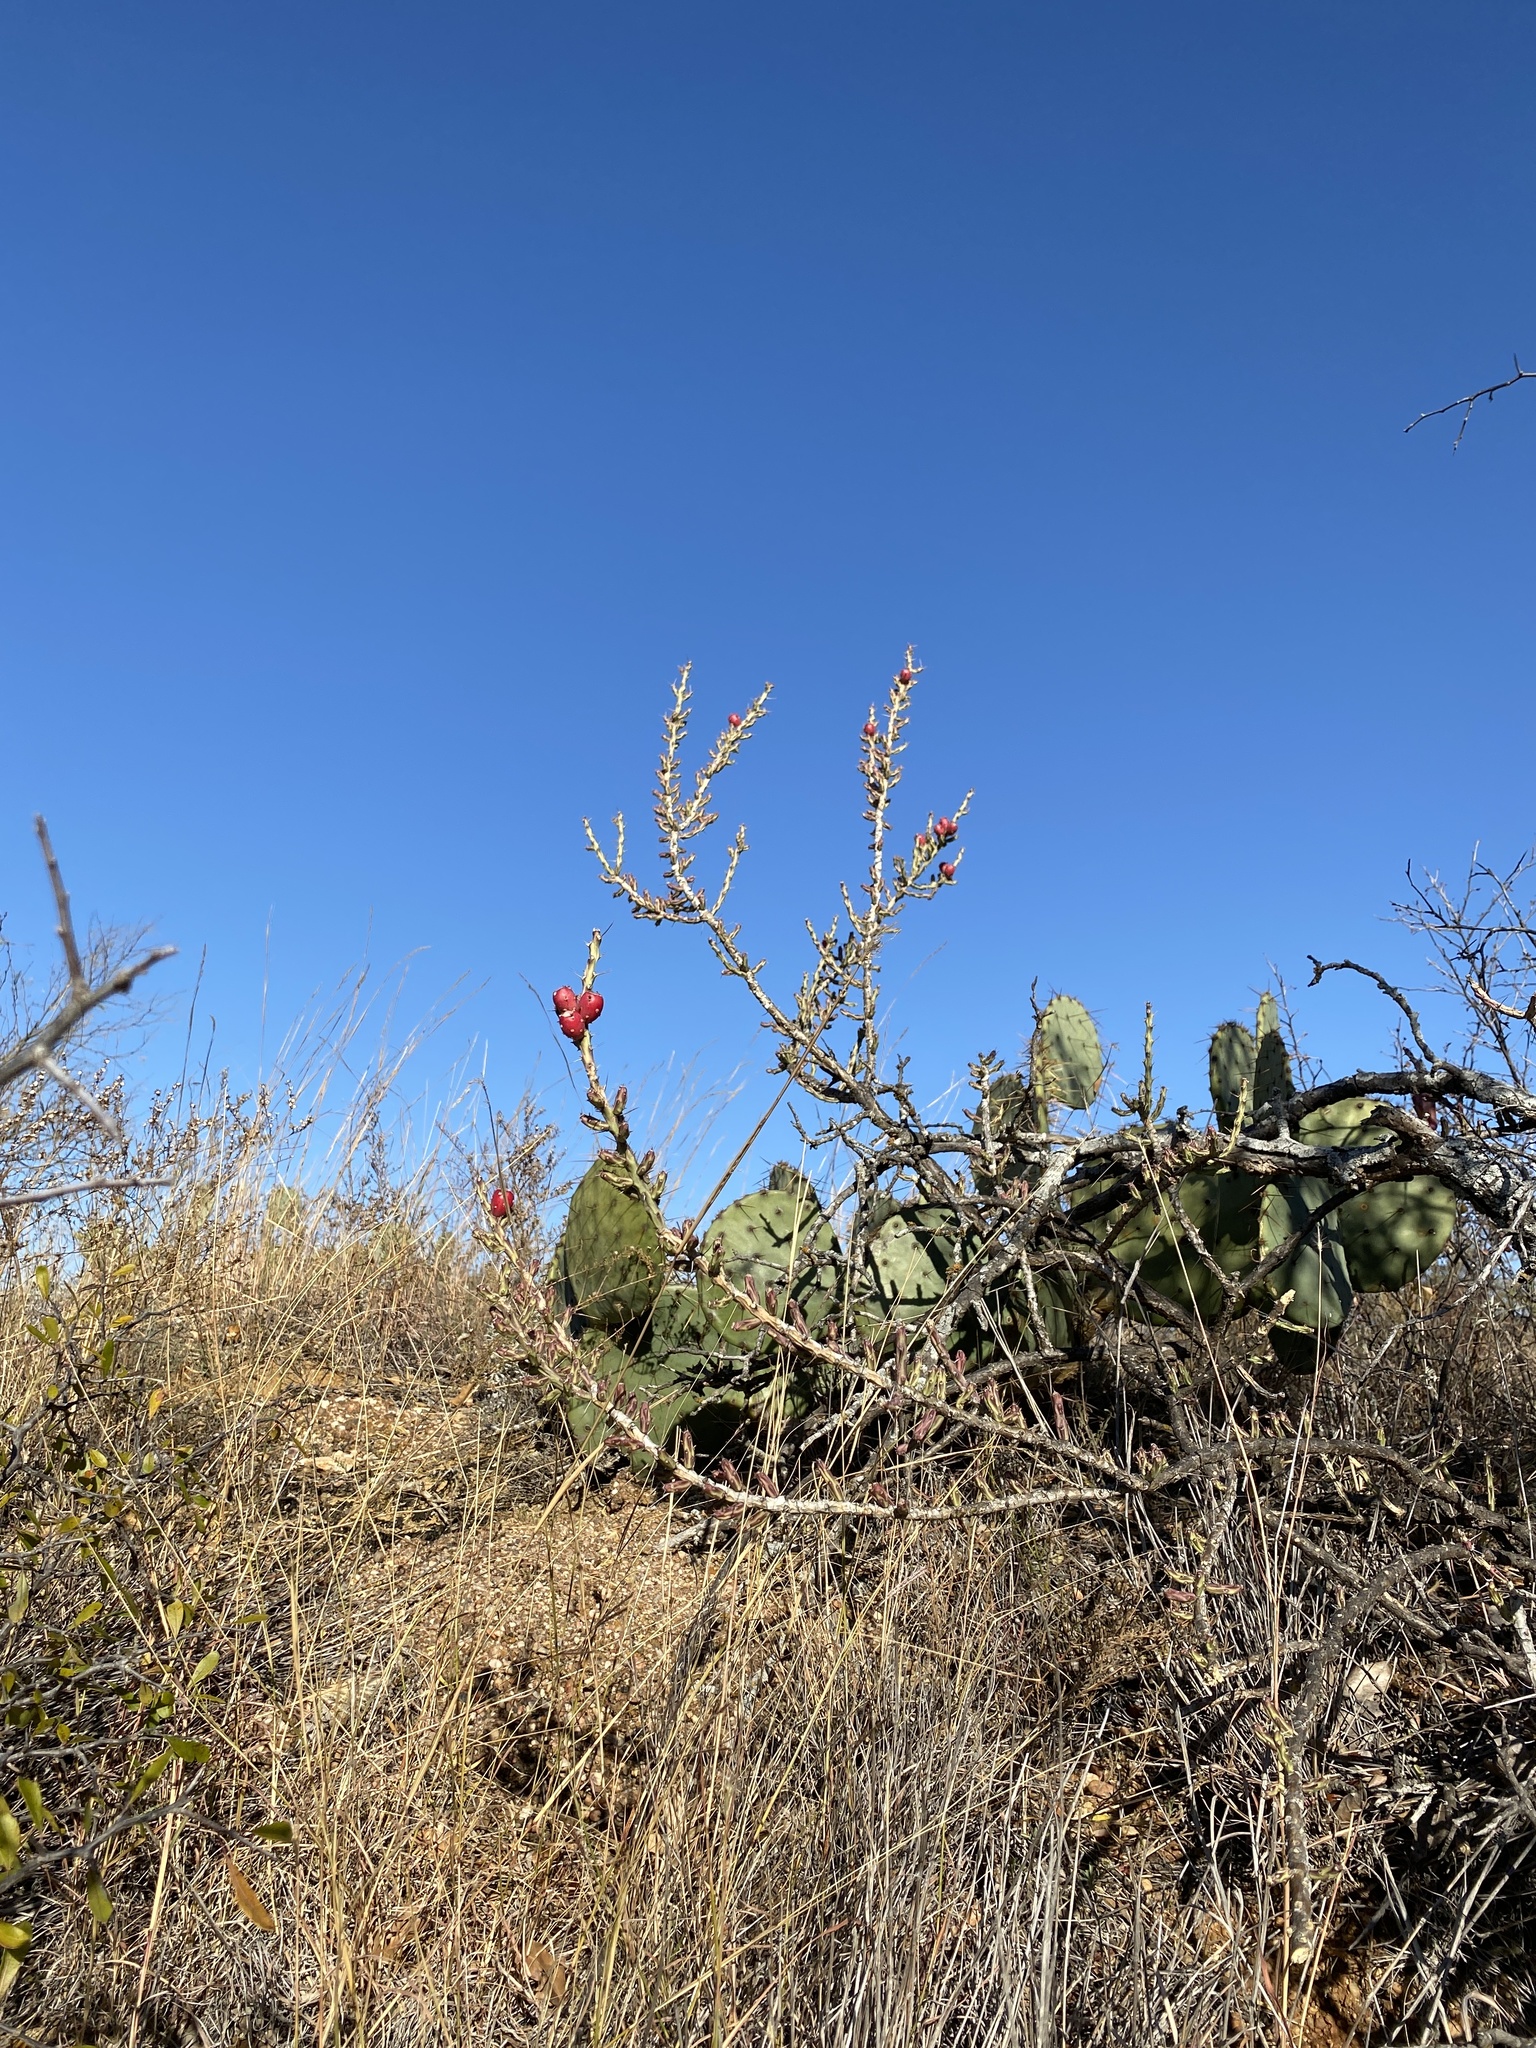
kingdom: Plantae
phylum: Tracheophyta
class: Magnoliopsida
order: Caryophyllales
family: Cactaceae
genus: Cylindropuntia
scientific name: Cylindropuntia leptocaulis
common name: Christmas cactus
